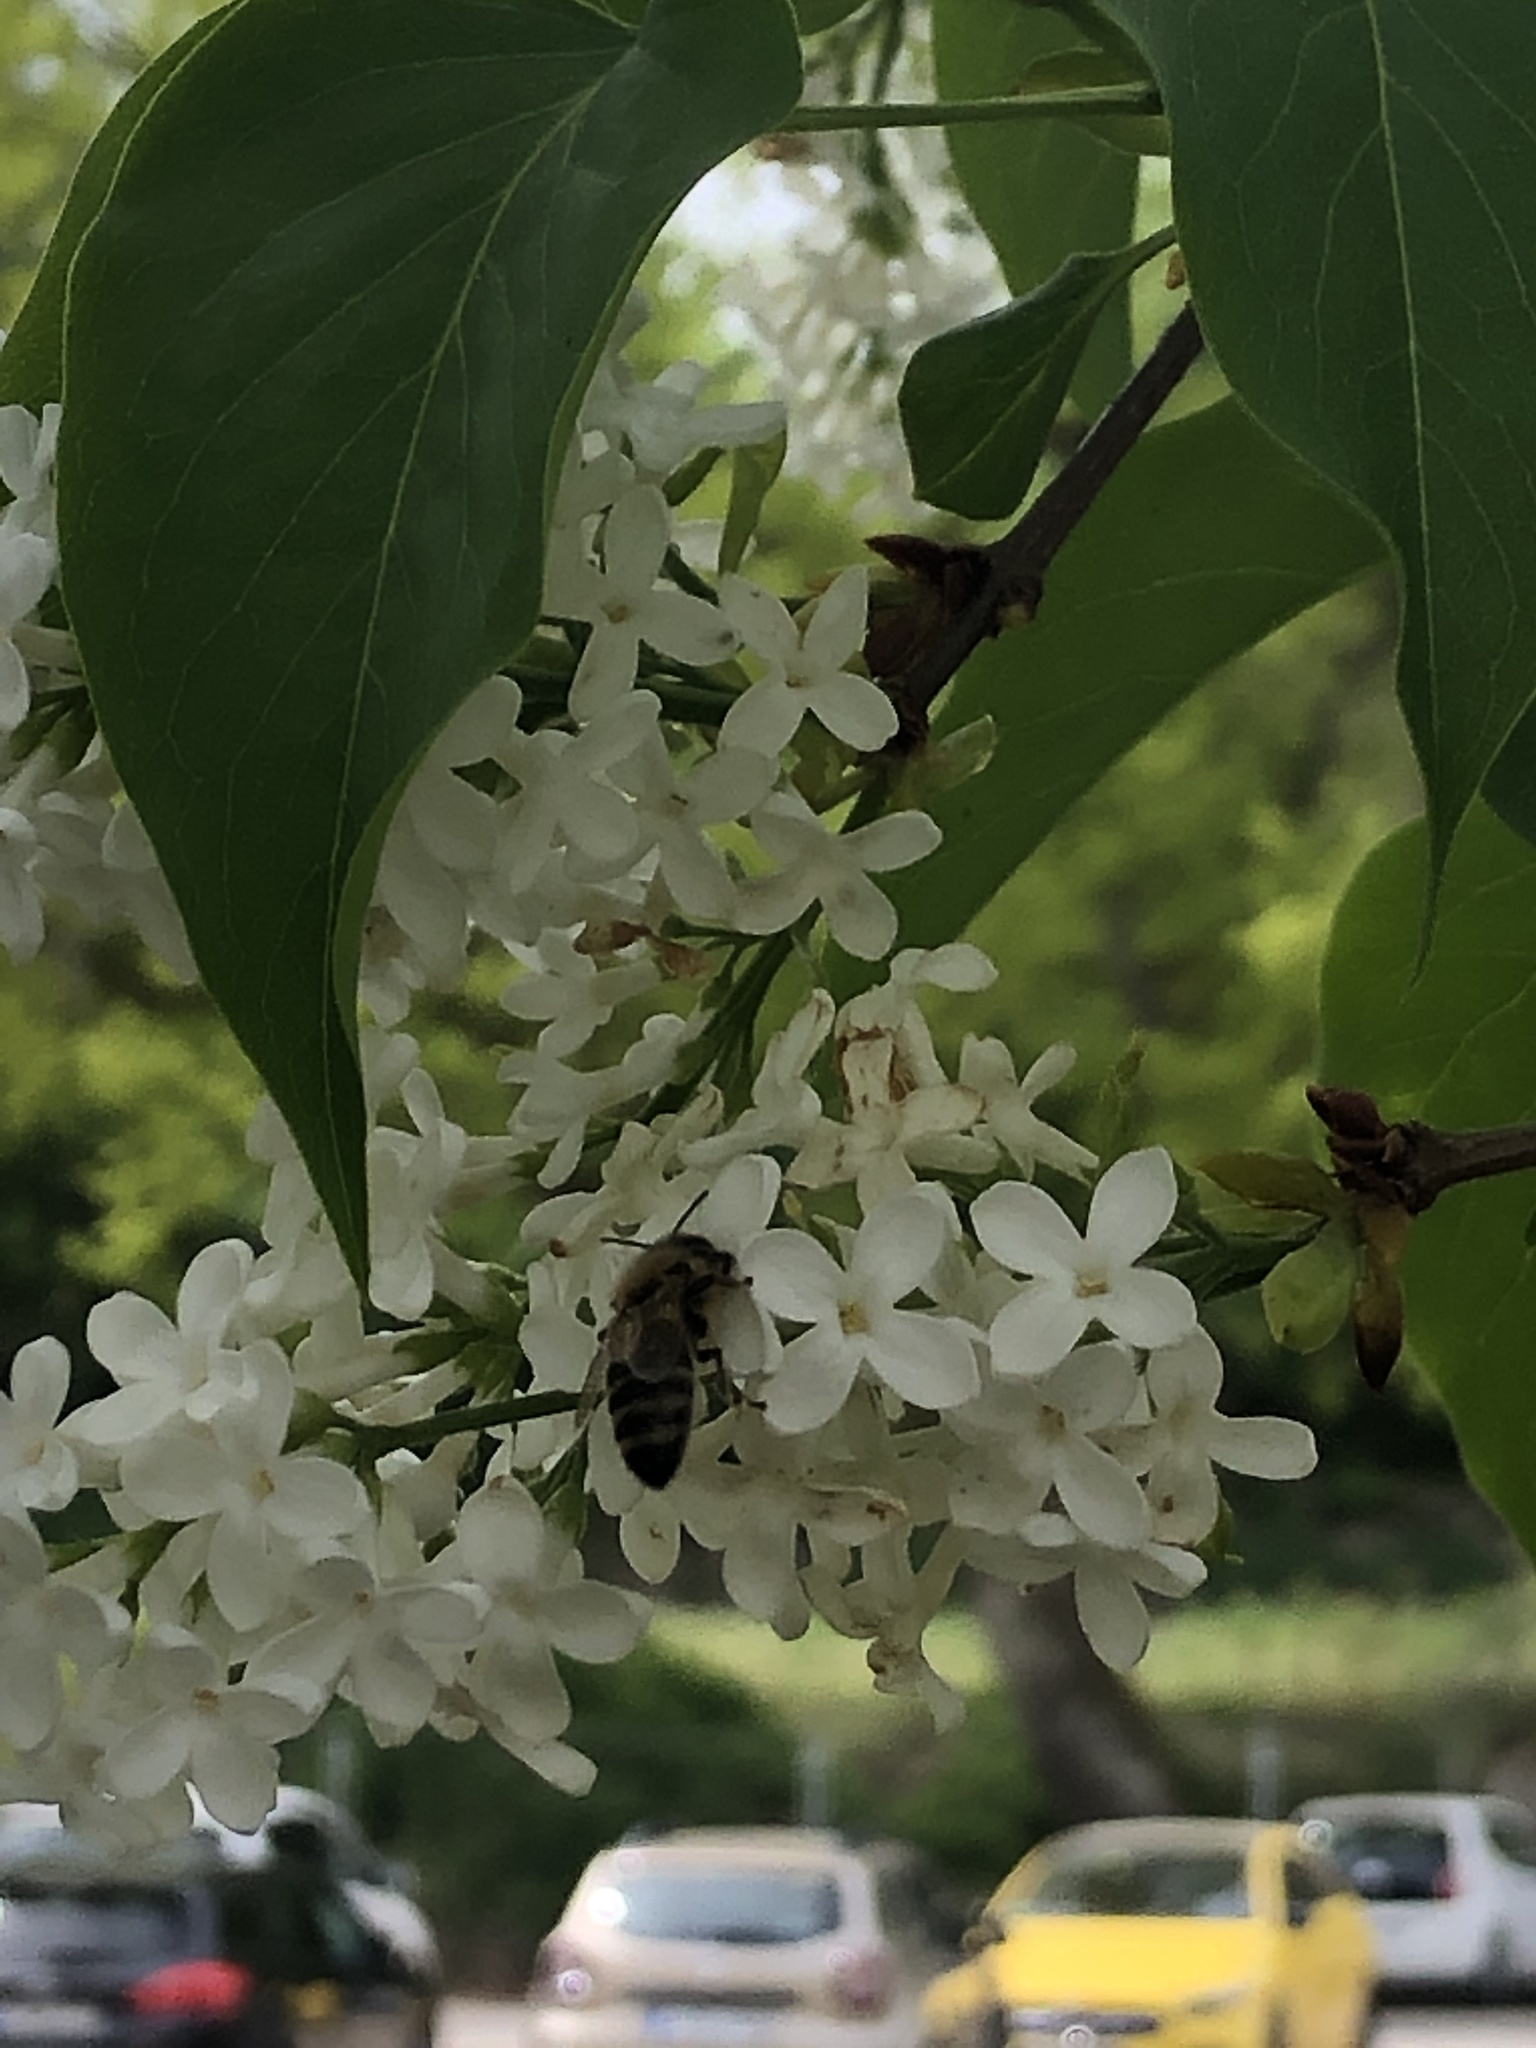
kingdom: Animalia
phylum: Arthropoda
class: Insecta
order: Hymenoptera
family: Apidae
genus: Apis
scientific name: Apis mellifera
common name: Honey bee
